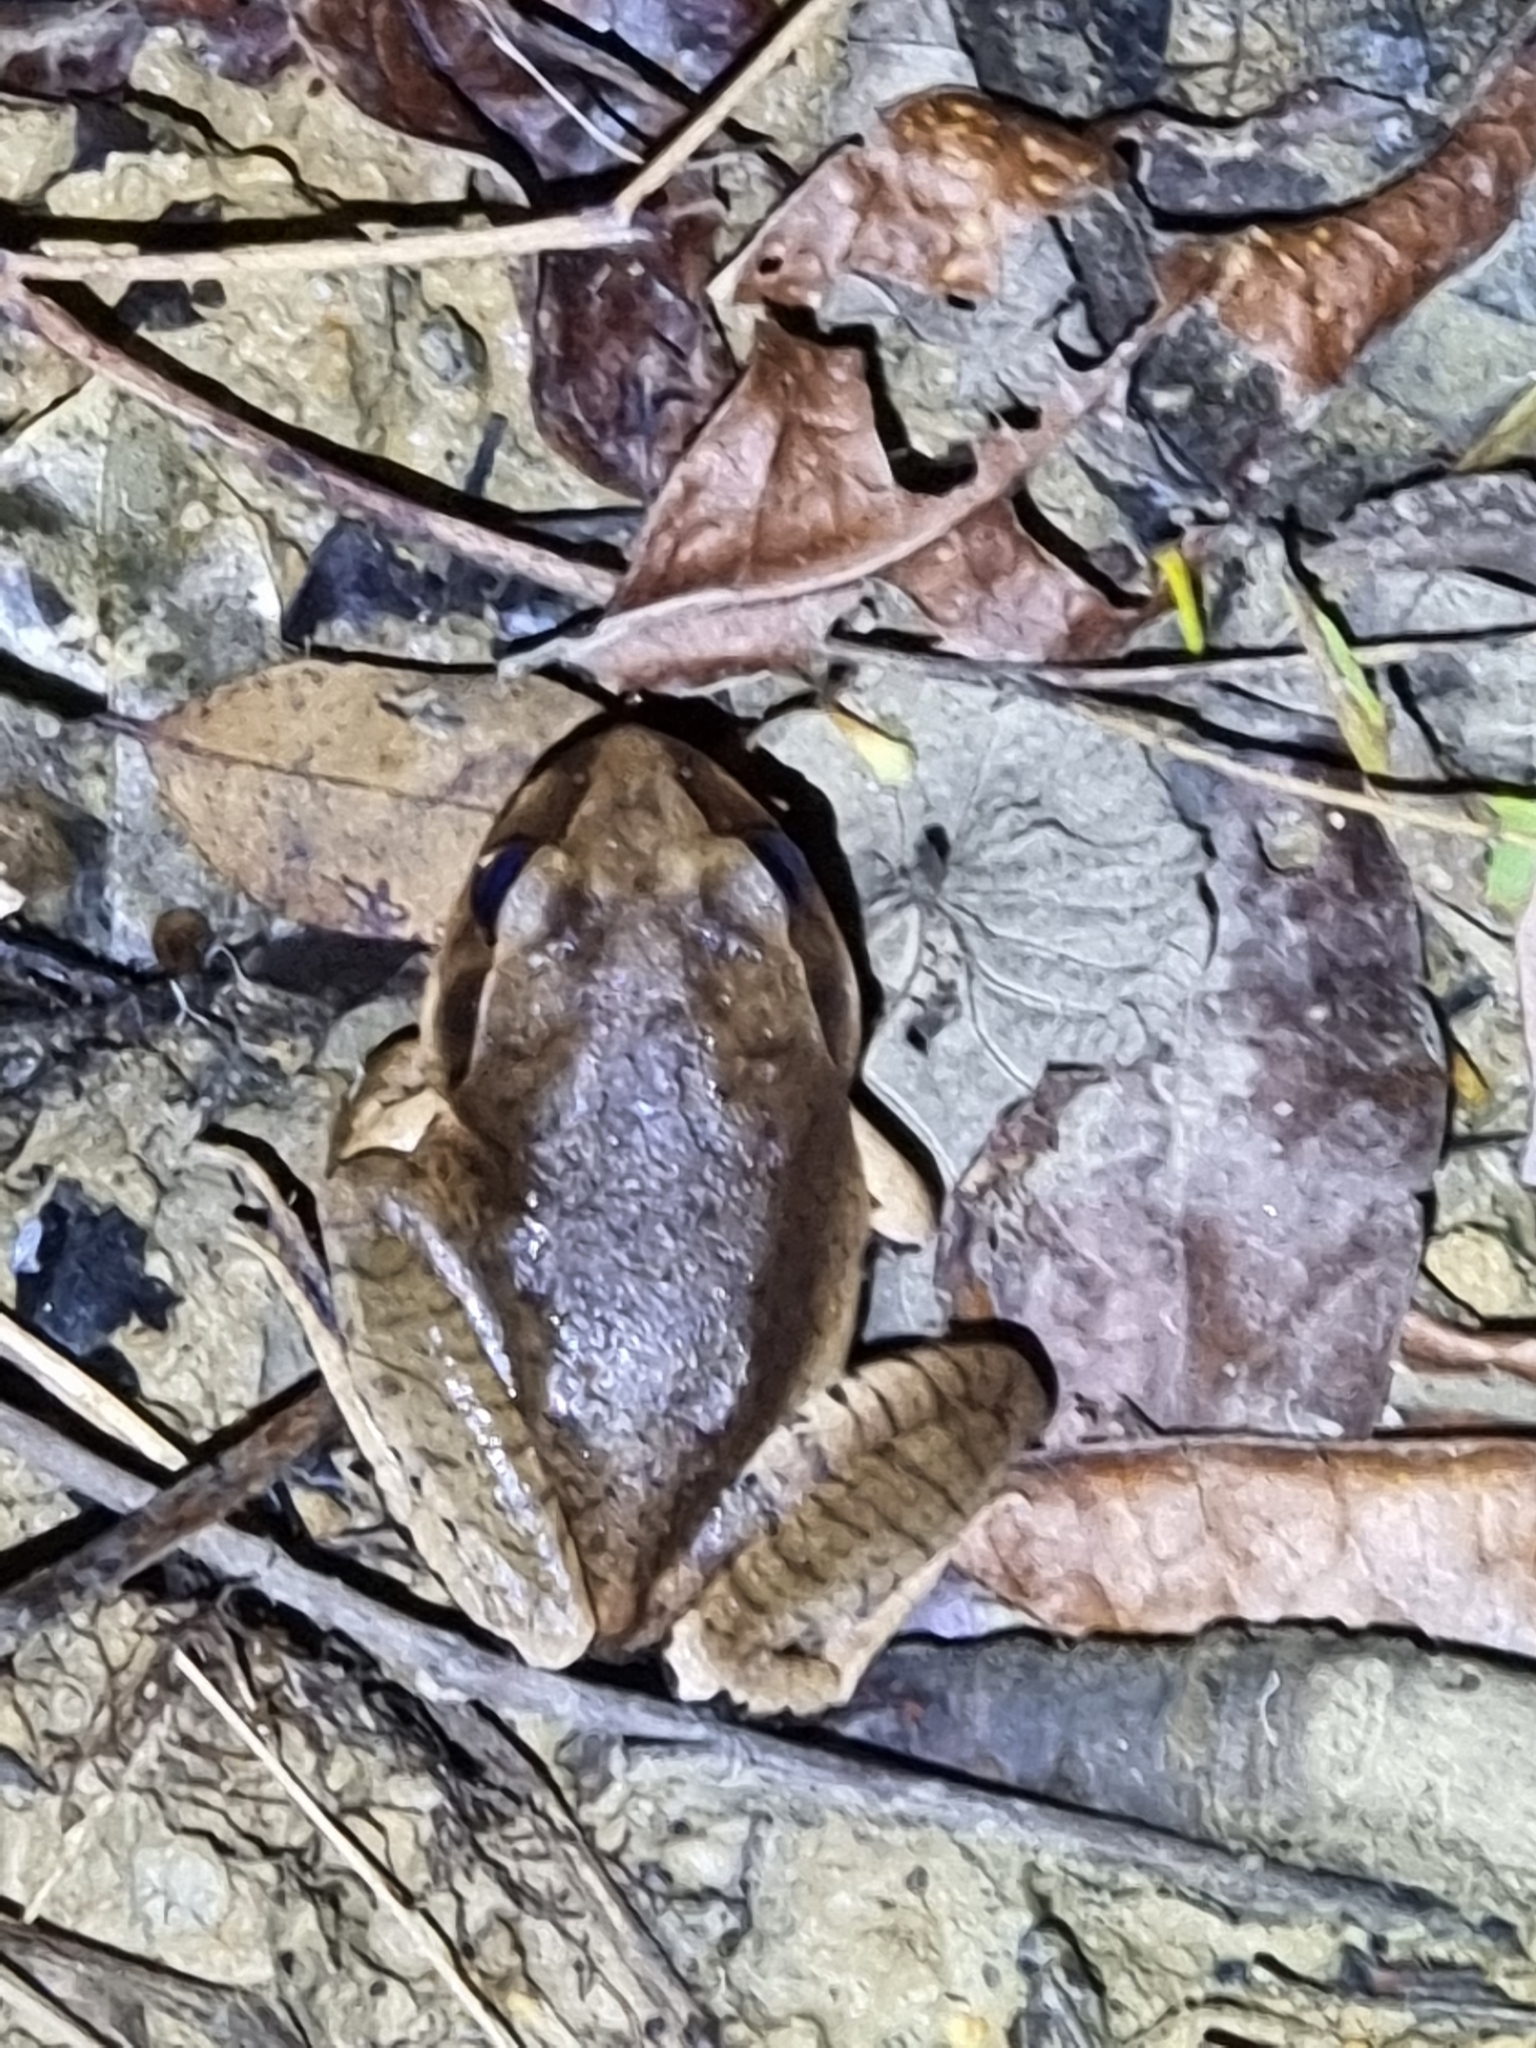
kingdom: Animalia
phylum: Chordata
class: Amphibia
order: Anura
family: Myobatrachidae
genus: Mixophyes
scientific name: Mixophyes fasciolatus
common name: Great barred river-frog
